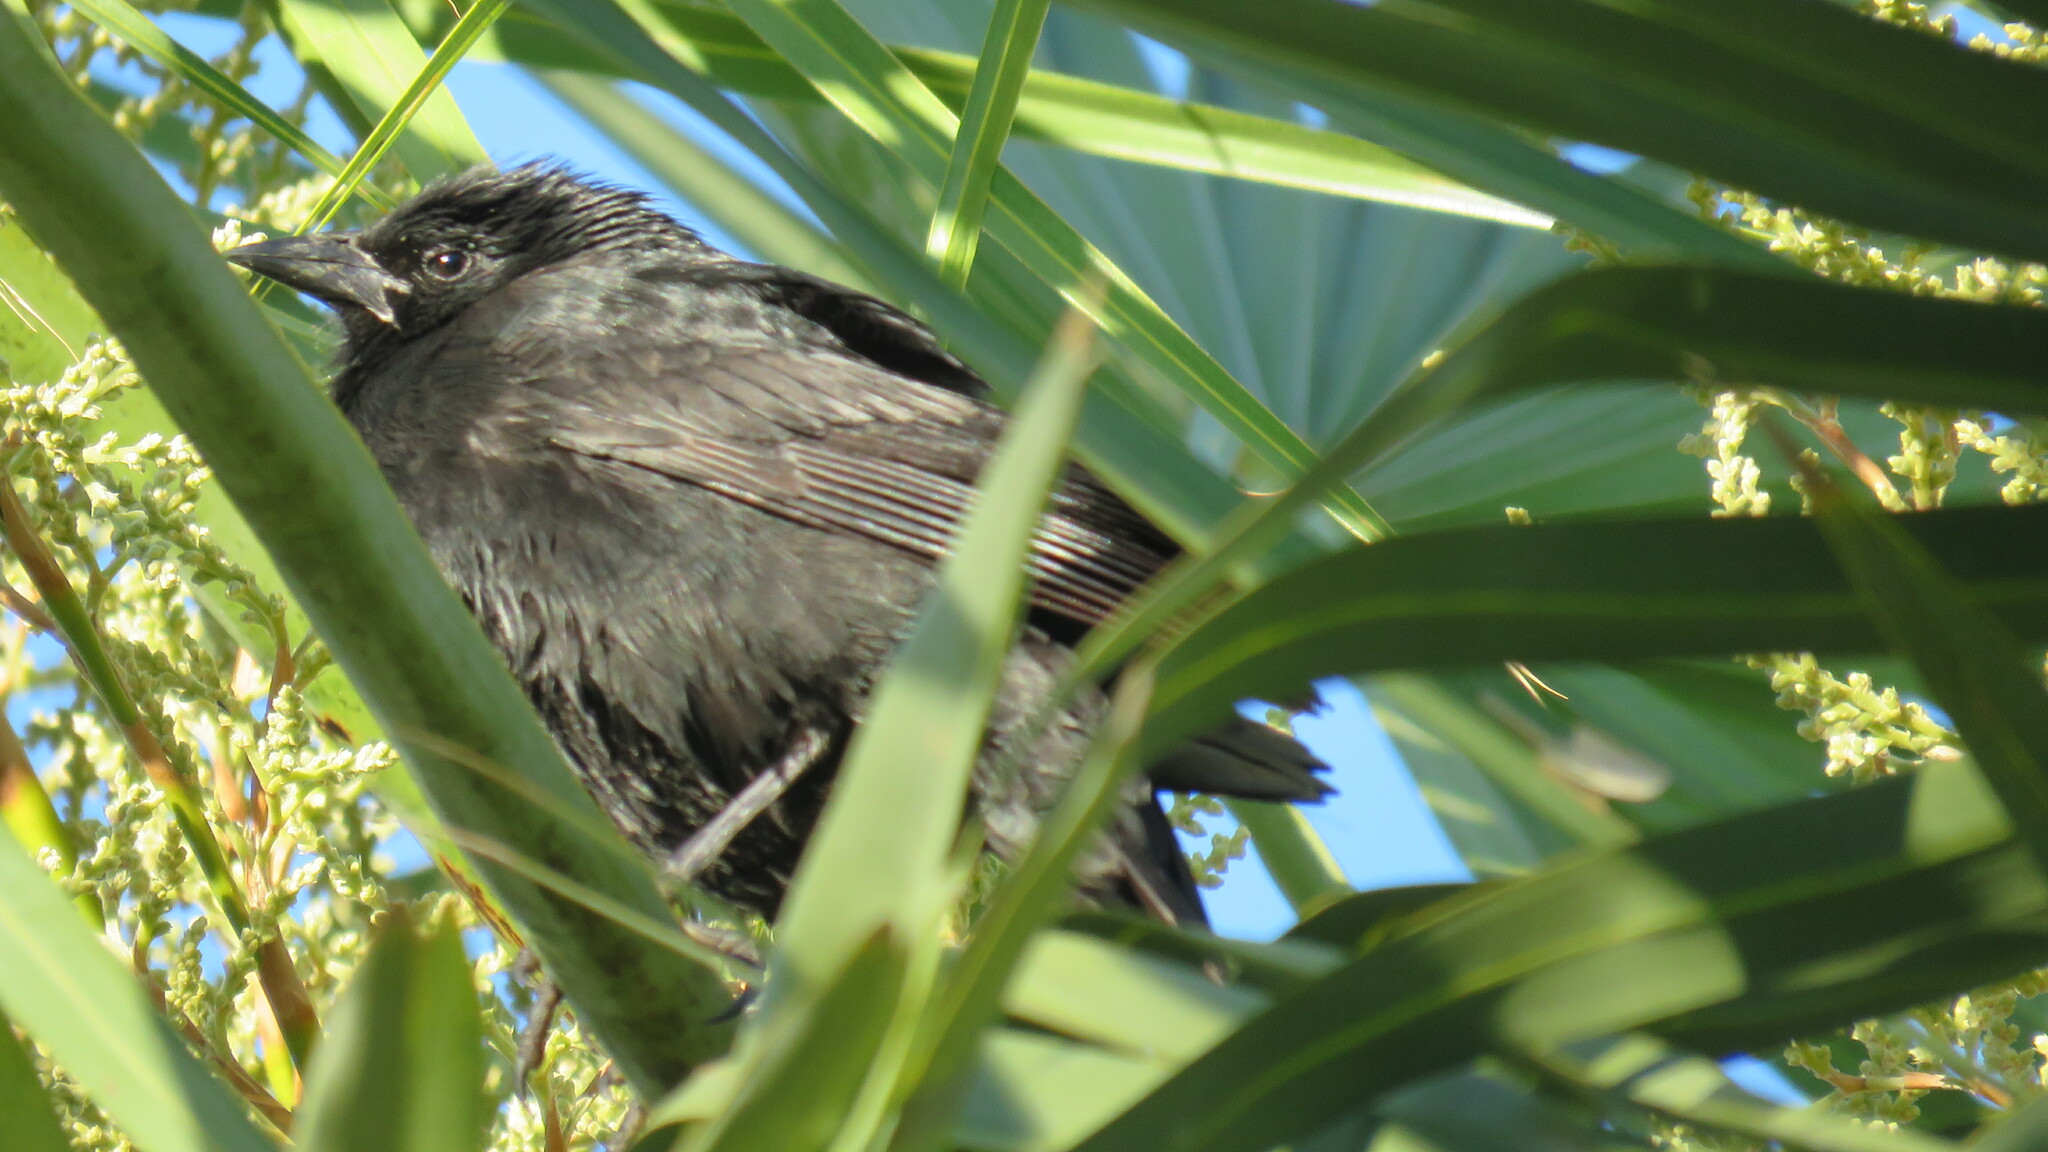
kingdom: Animalia
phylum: Chordata
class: Aves
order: Passeriformes
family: Icteridae
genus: Gnorimopsar
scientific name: Gnorimopsar chopi
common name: Chopi blackbird
